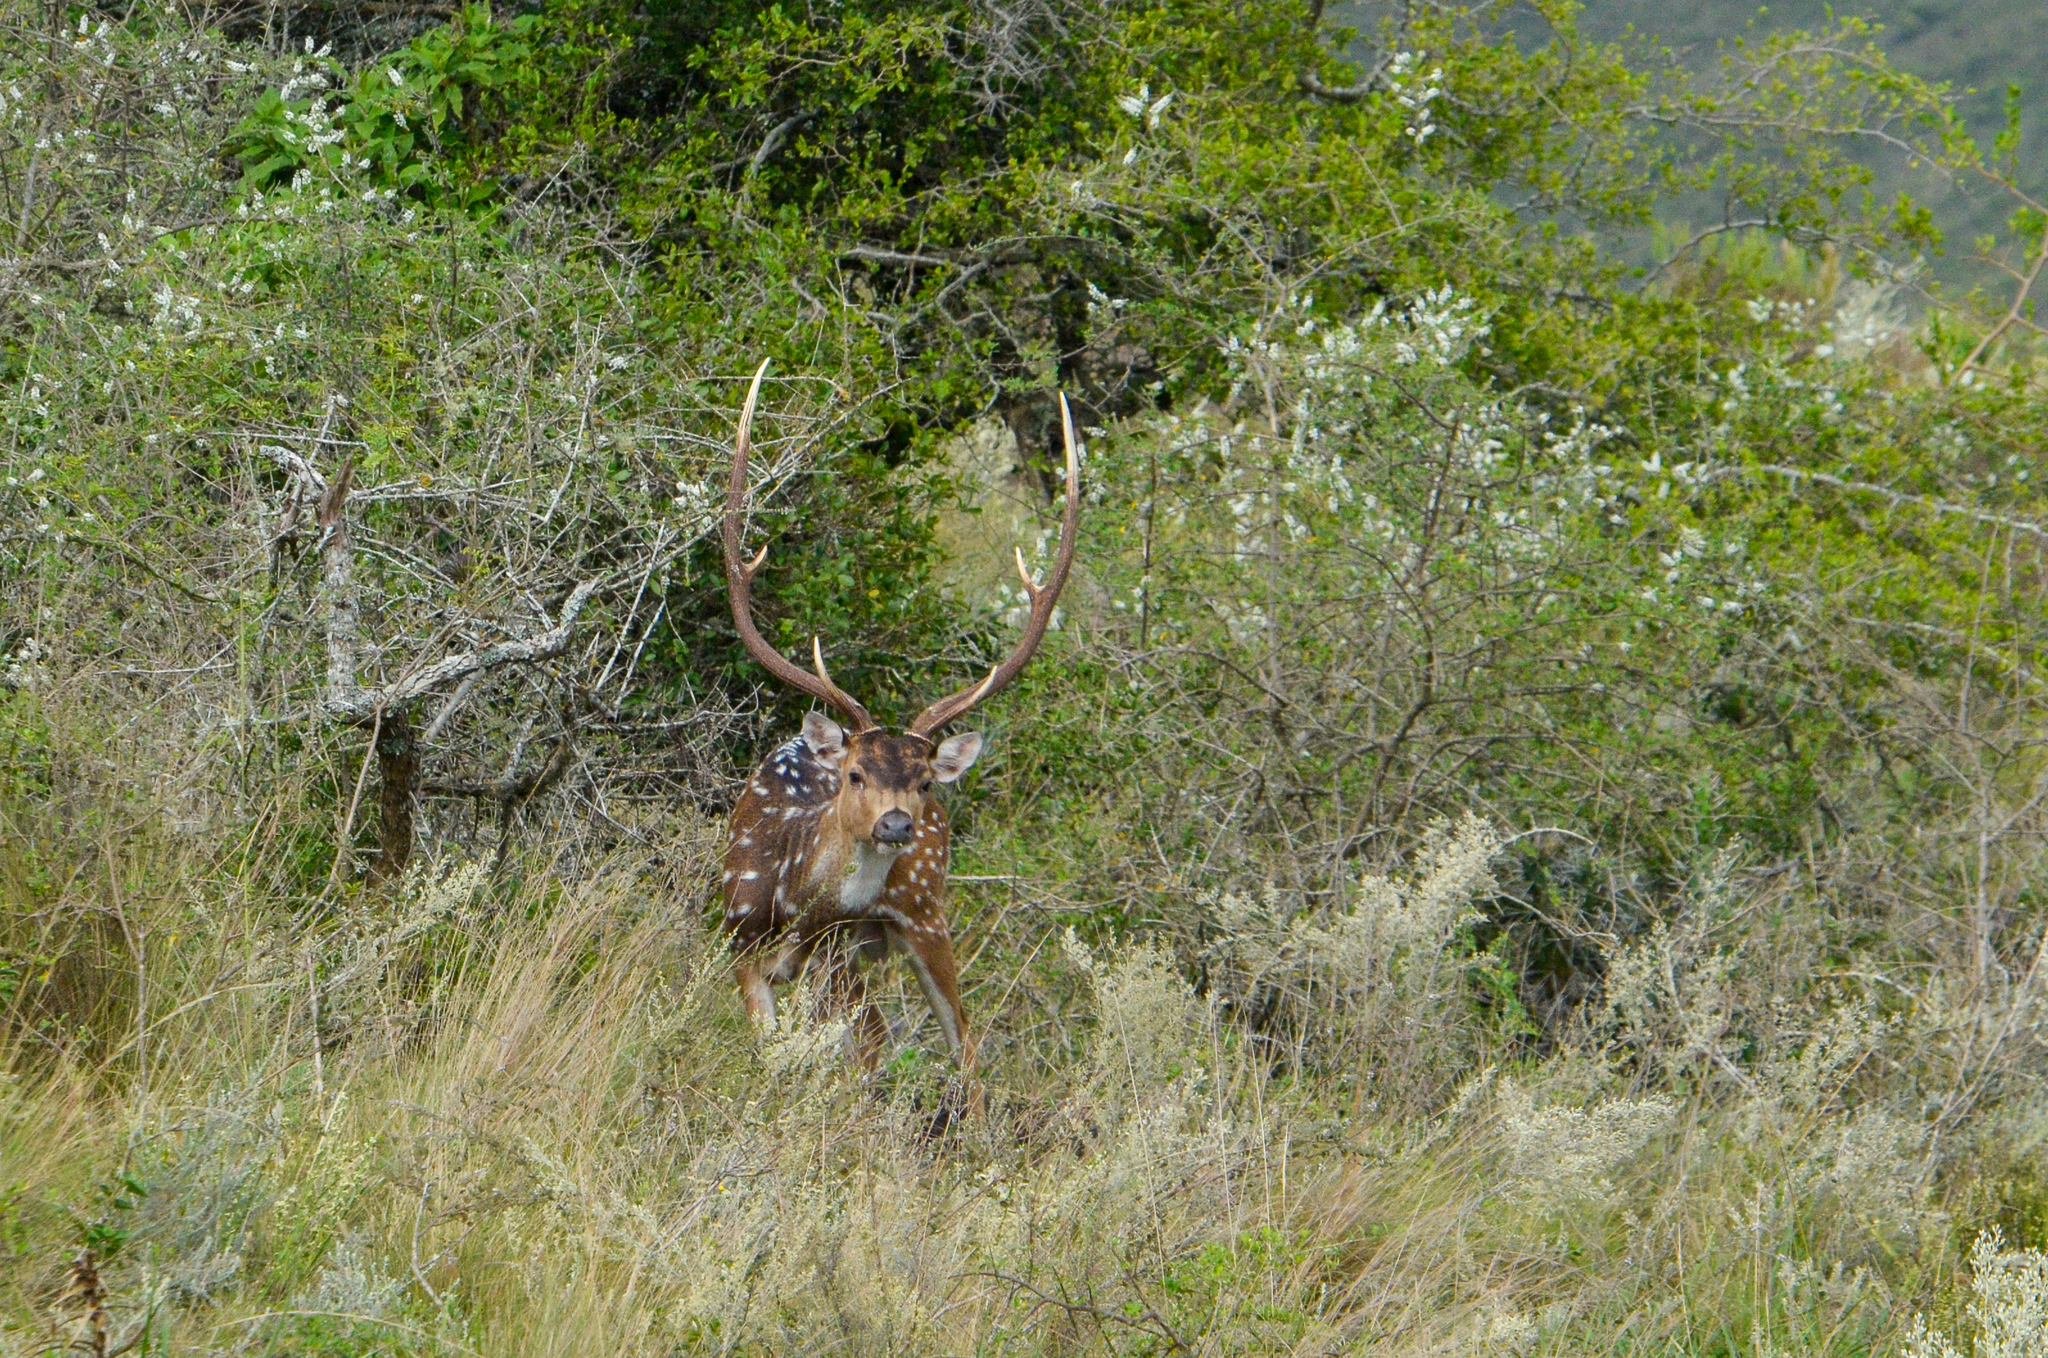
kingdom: Animalia
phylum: Chordata
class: Mammalia
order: Artiodactyla
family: Cervidae
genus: Axis
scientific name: Axis axis
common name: Chital
